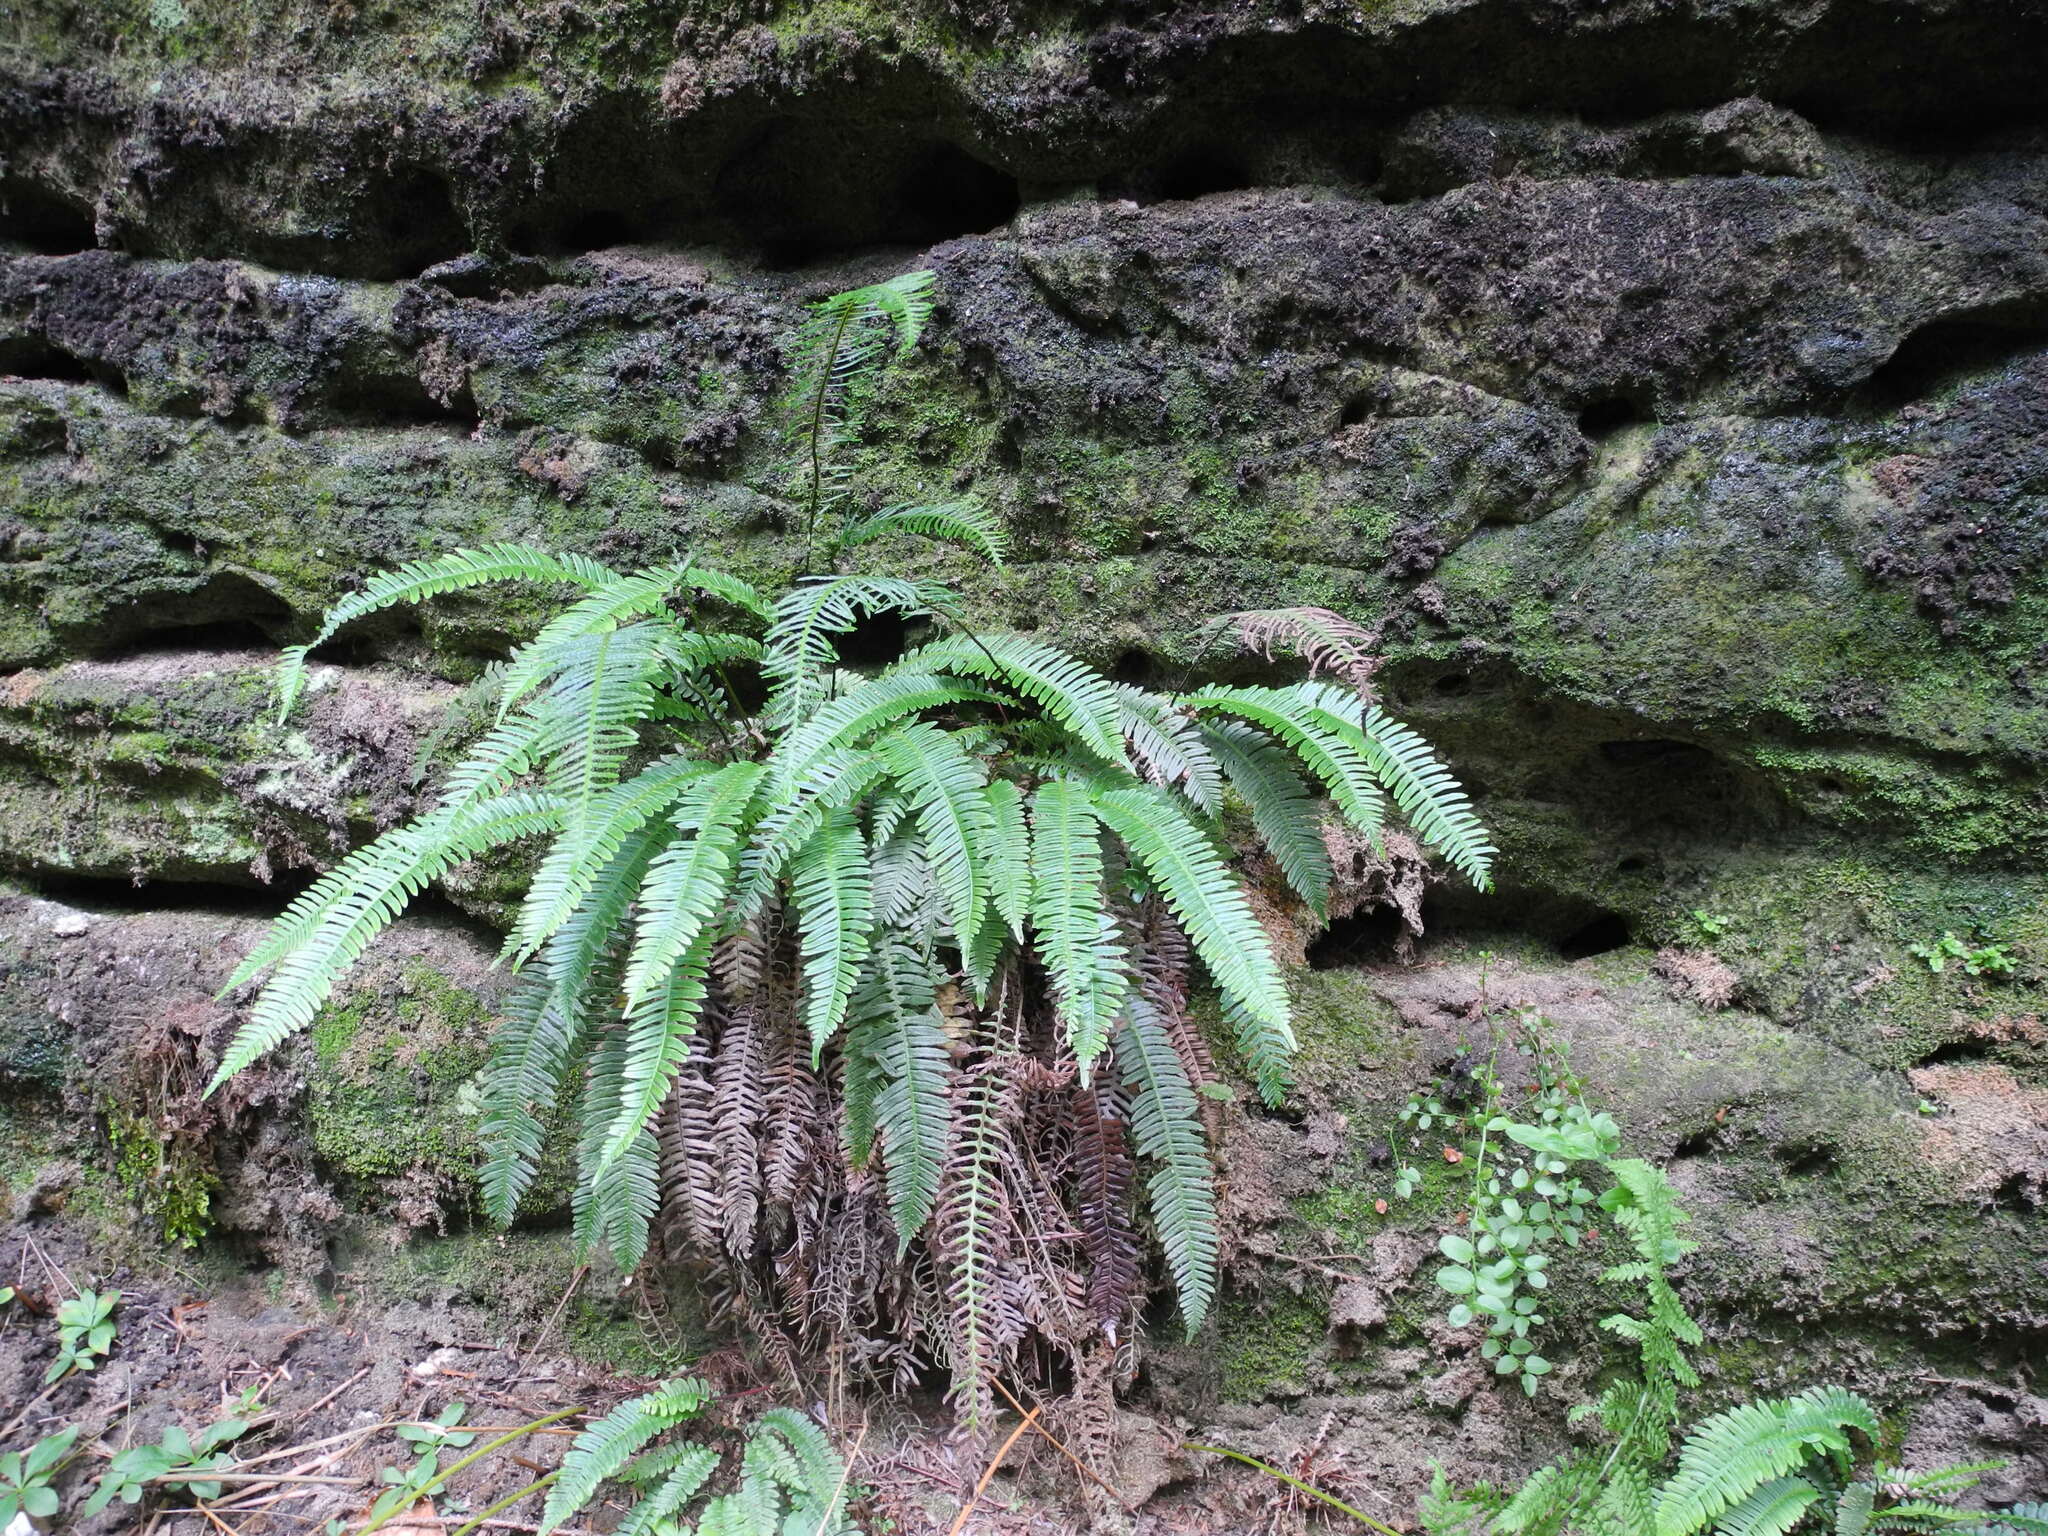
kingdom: Plantae
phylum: Tracheophyta
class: Polypodiopsida
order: Polypodiales
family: Blechnaceae
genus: Struthiopteris
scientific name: Struthiopteris spicant
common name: Deer fern
